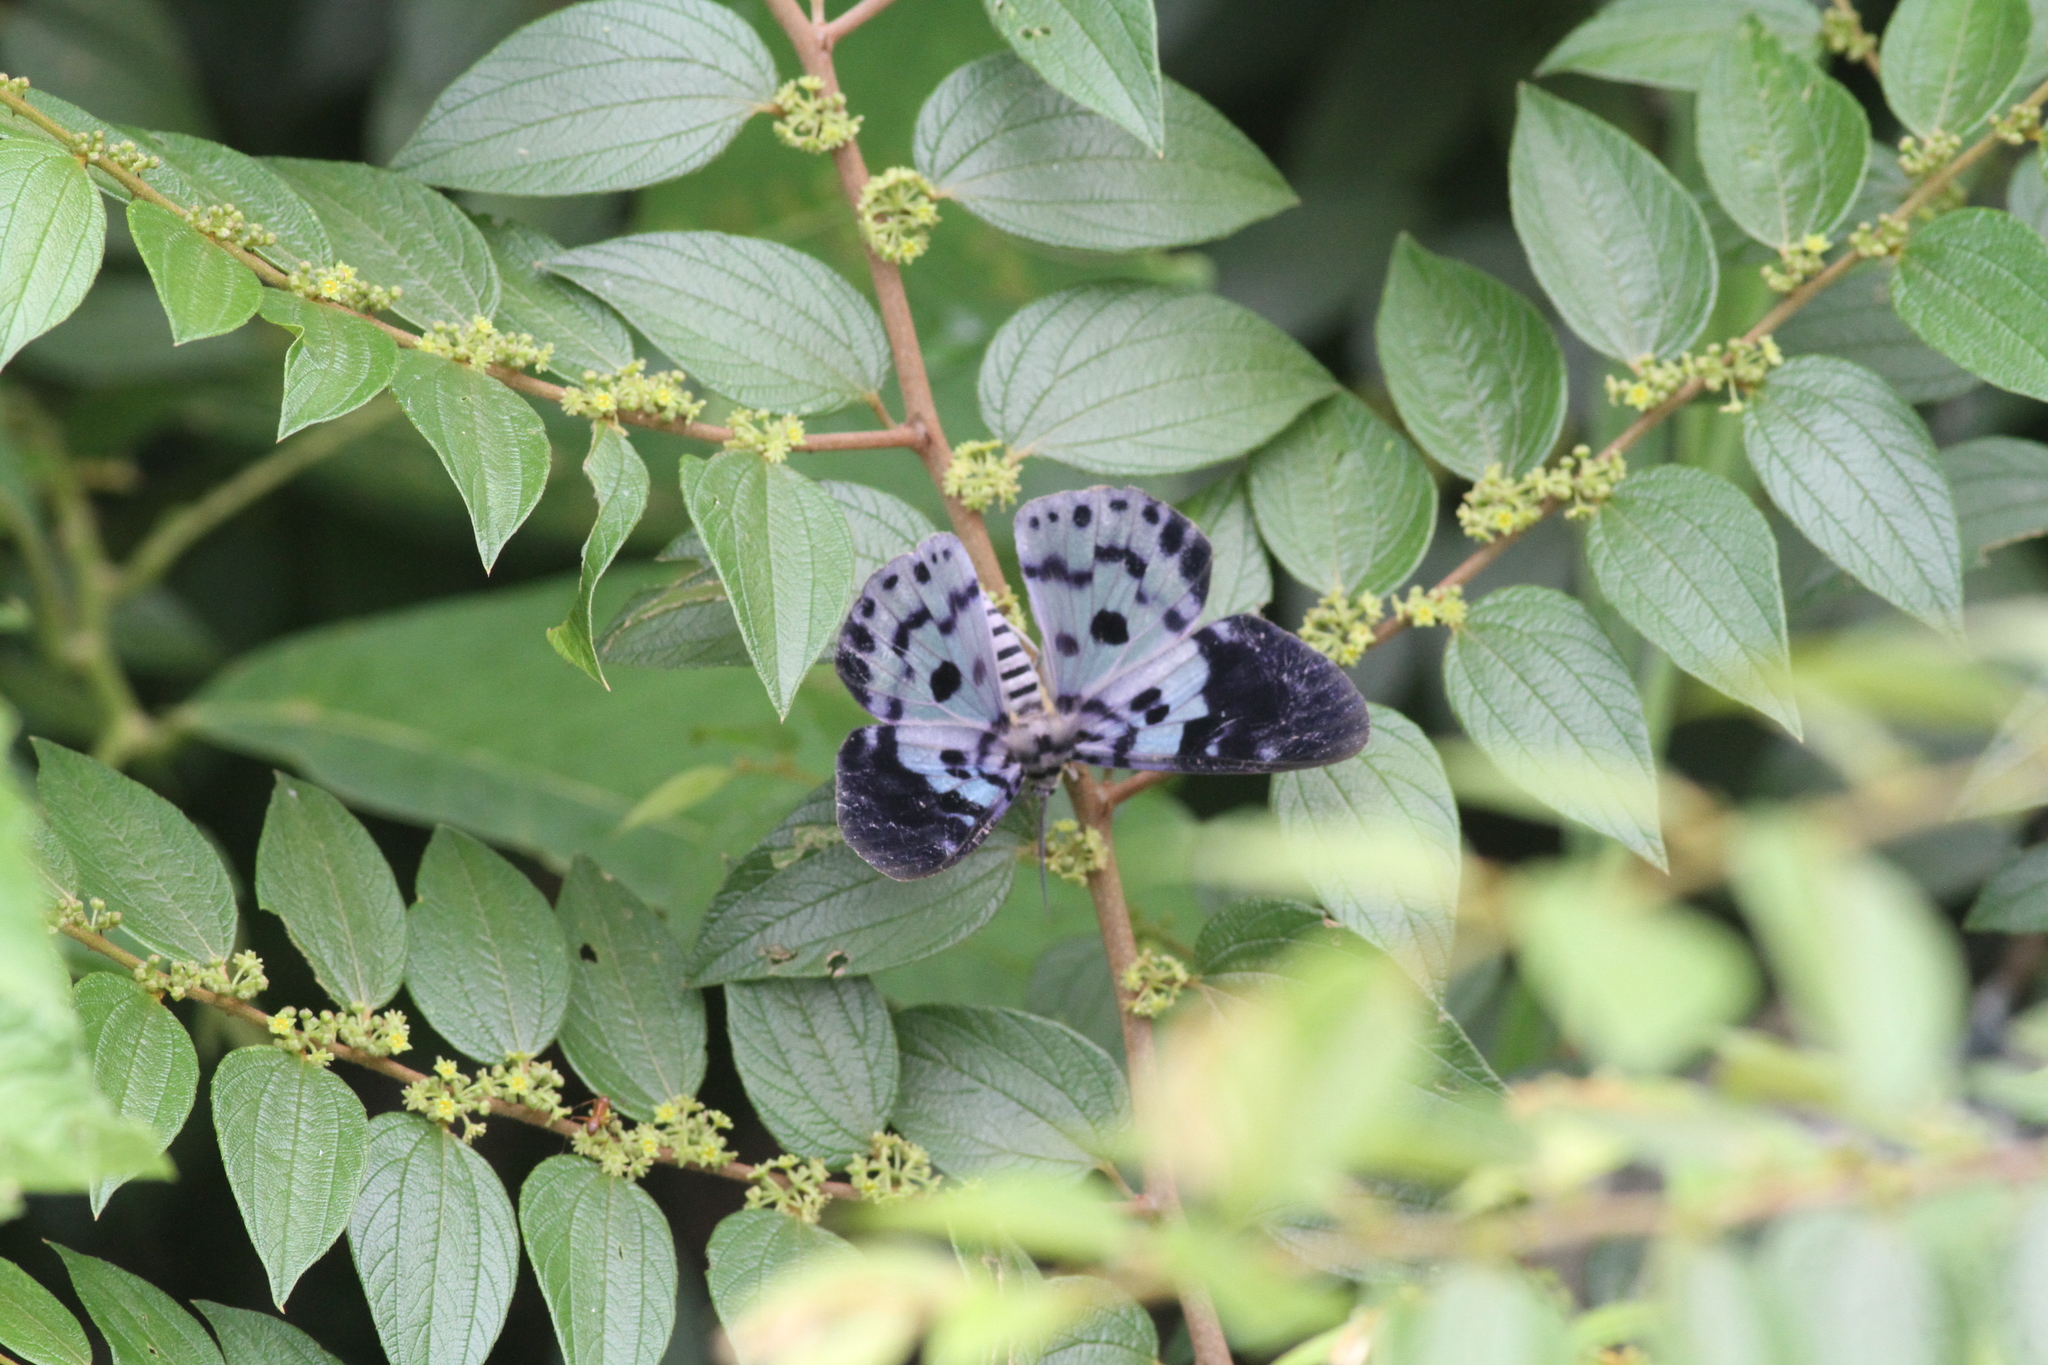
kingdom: Animalia
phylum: Arthropoda
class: Insecta
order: Lepidoptera
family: Geometridae
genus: Dysphania
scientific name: Dysphania percota
